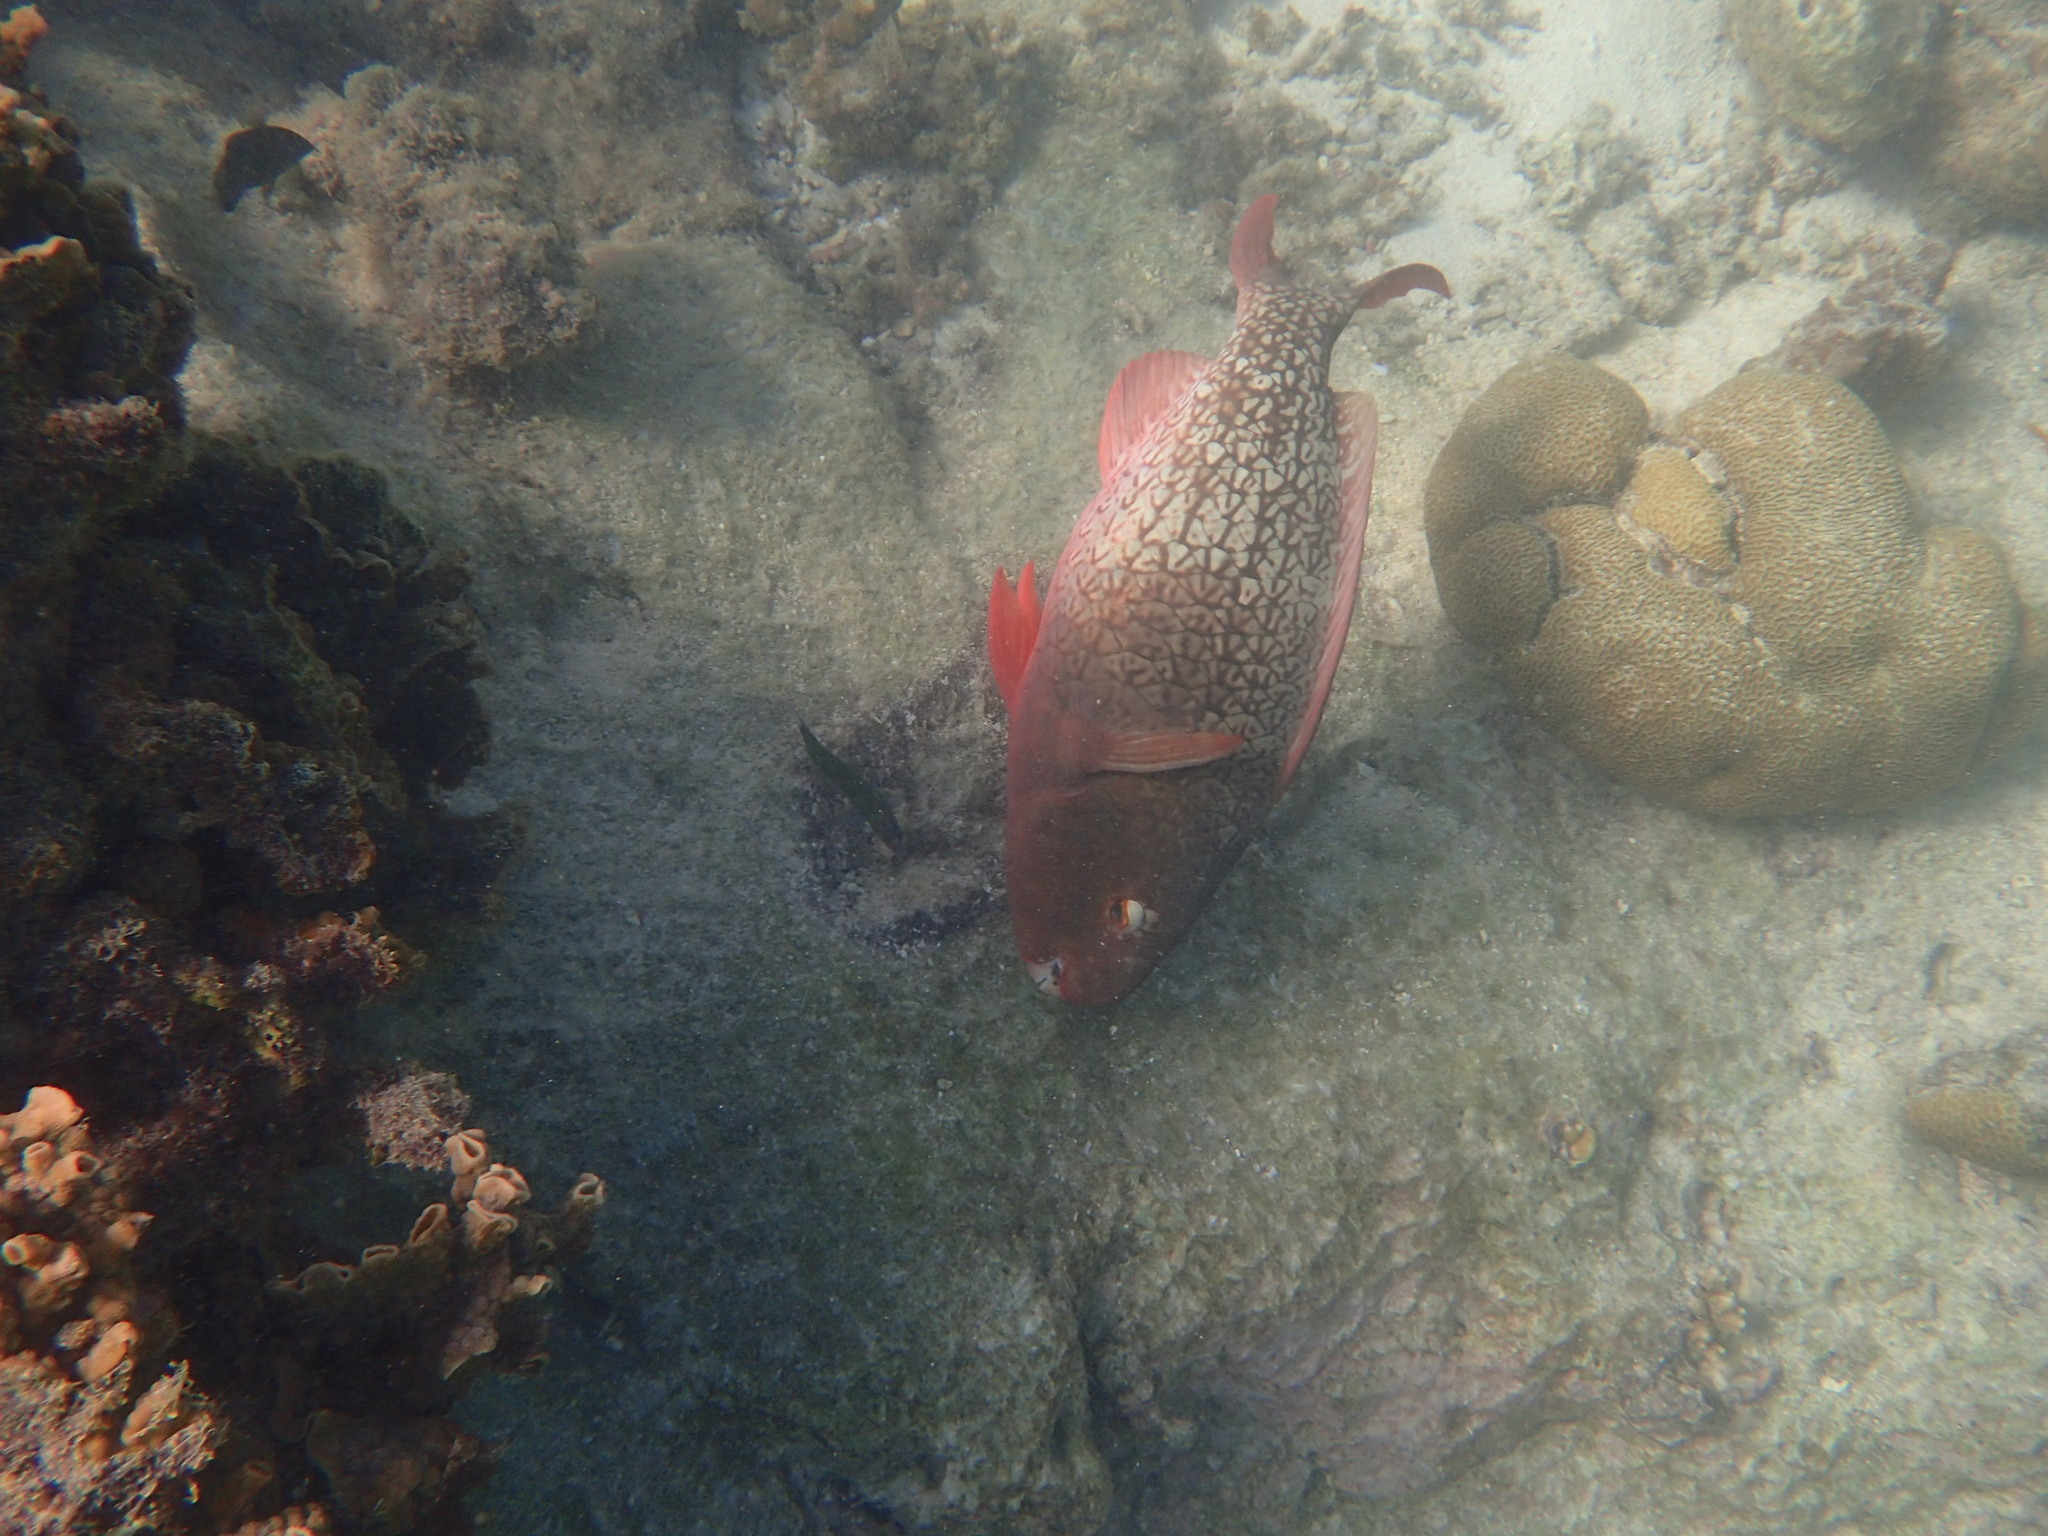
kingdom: Animalia
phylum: Chordata
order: Perciformes
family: Scaridae
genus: Scarus
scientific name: Scarus rubroviolaceus
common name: Ember parrotfish
